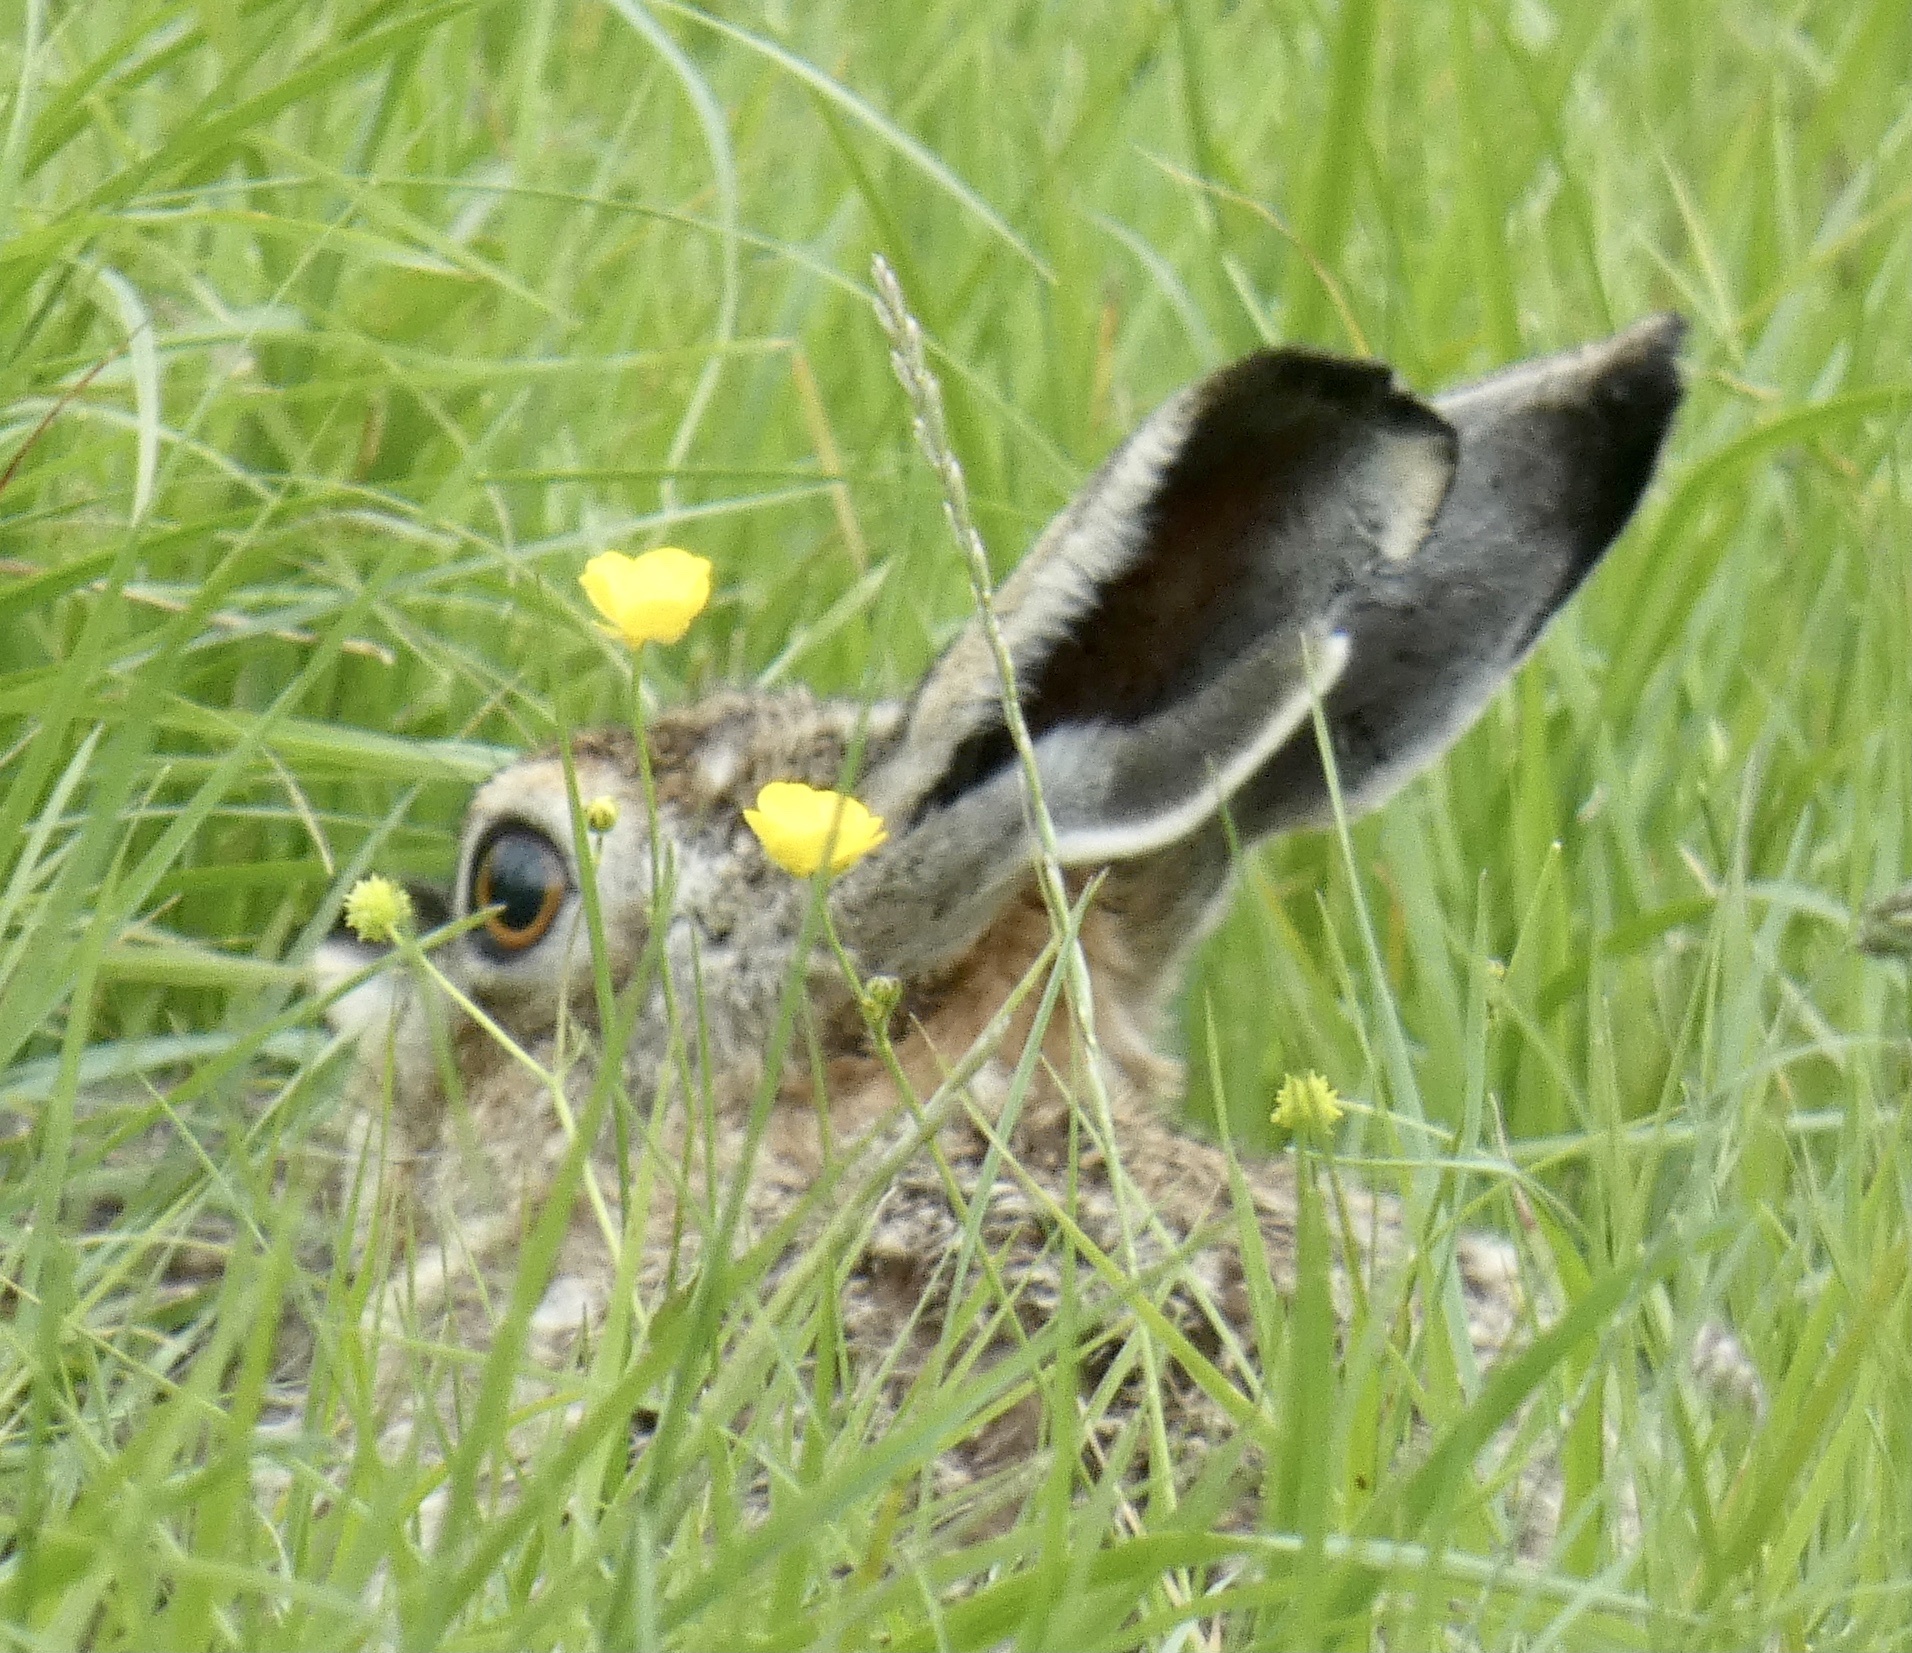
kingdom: Animalia
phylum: Chordata
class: Mammalia
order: Lagomorpha
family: Leporidae
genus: Lepus
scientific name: Lepus europaeus
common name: European hare
